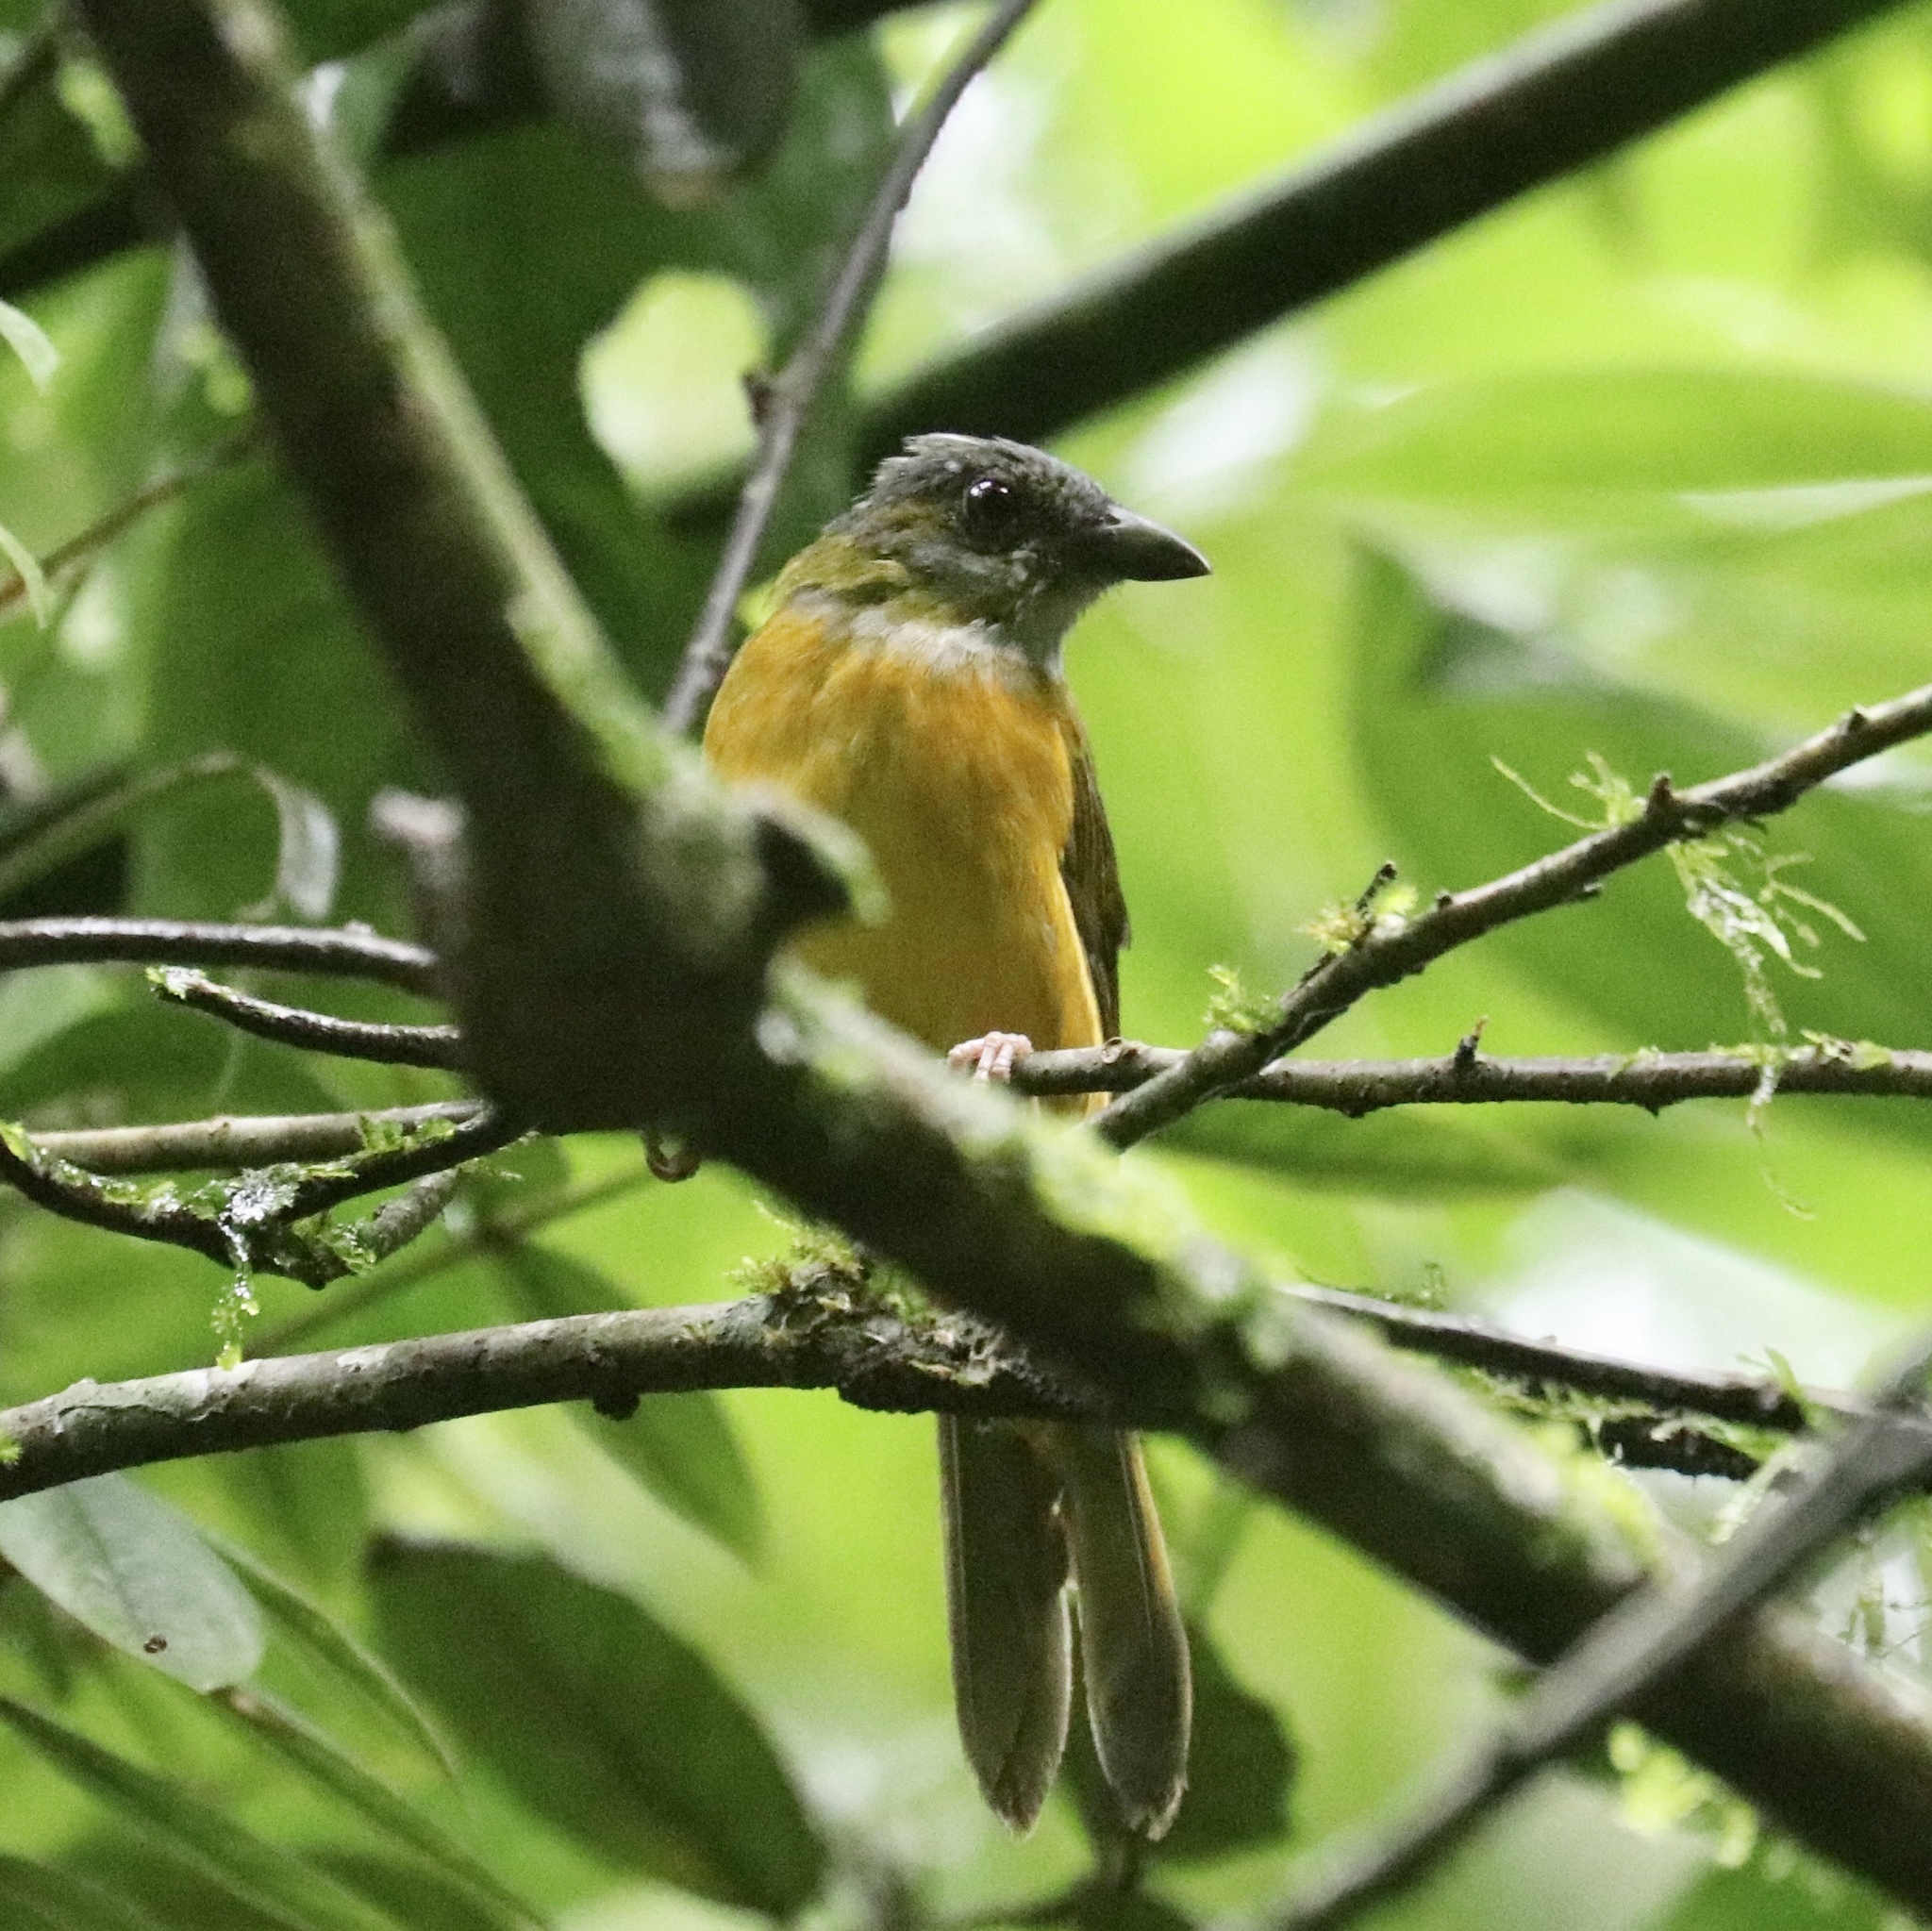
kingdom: Animalia
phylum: Chordata
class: Aves
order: Passeriformes
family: Thraupidae
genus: Eucometis
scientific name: Eucometis penicillata
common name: Grey-headed tanager
